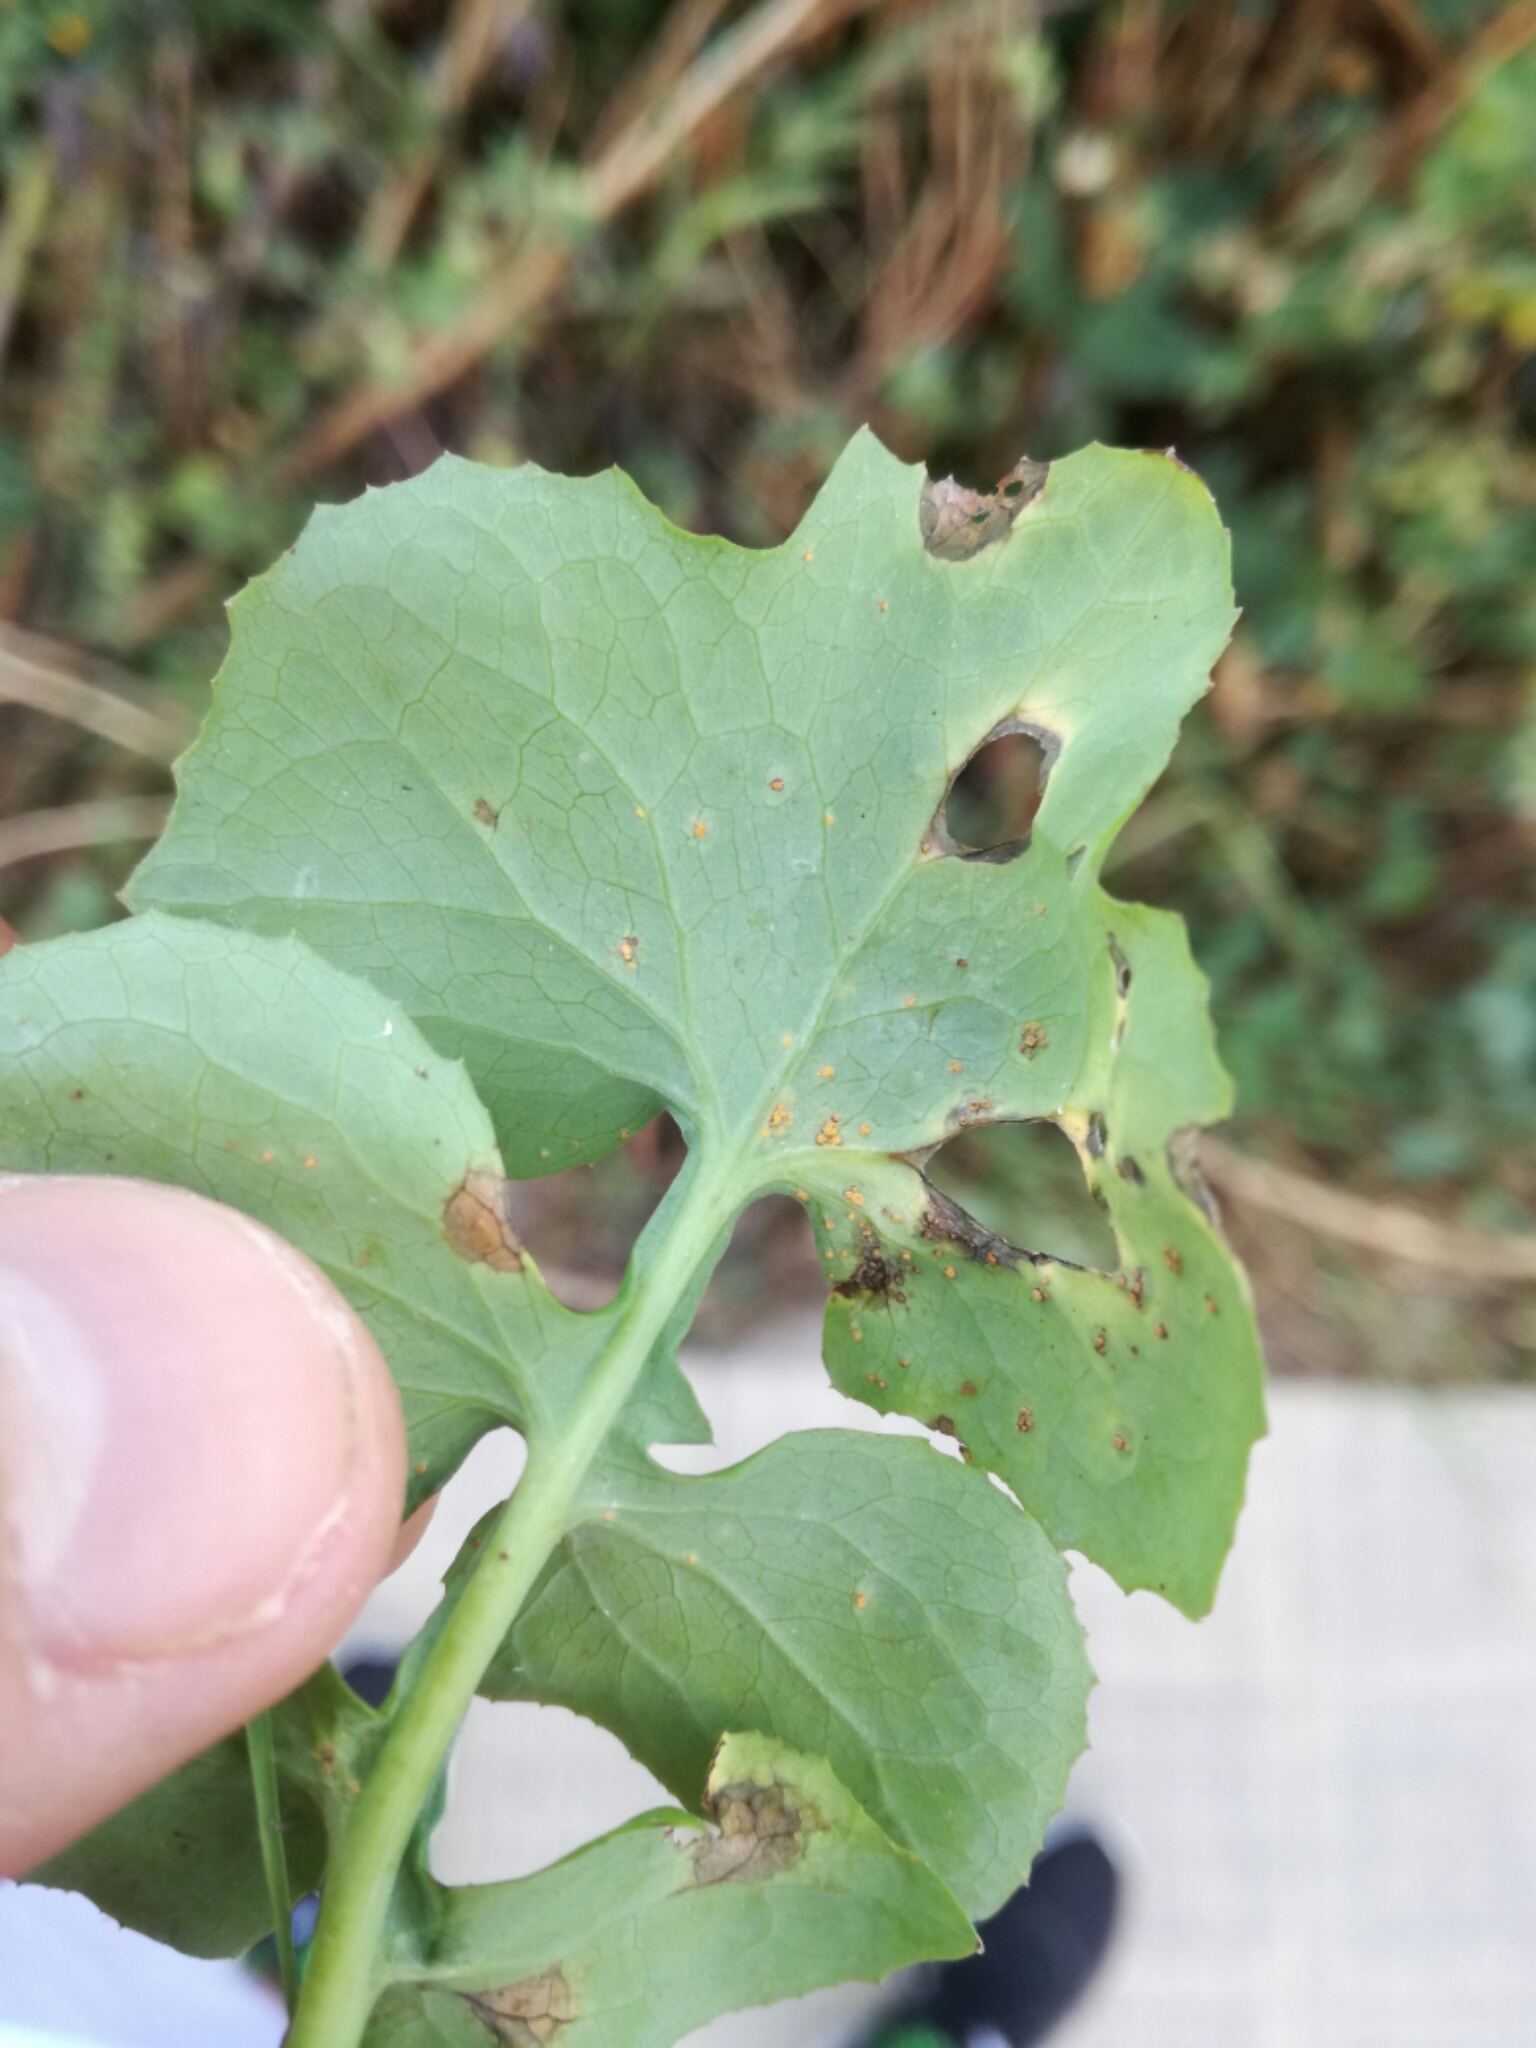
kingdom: Fungi
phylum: Basidiomycota
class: Pucciniomycetes
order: Pucciniales
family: Pucciniaceae
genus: Peristemma
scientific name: Peristemma pseudosphaeria
